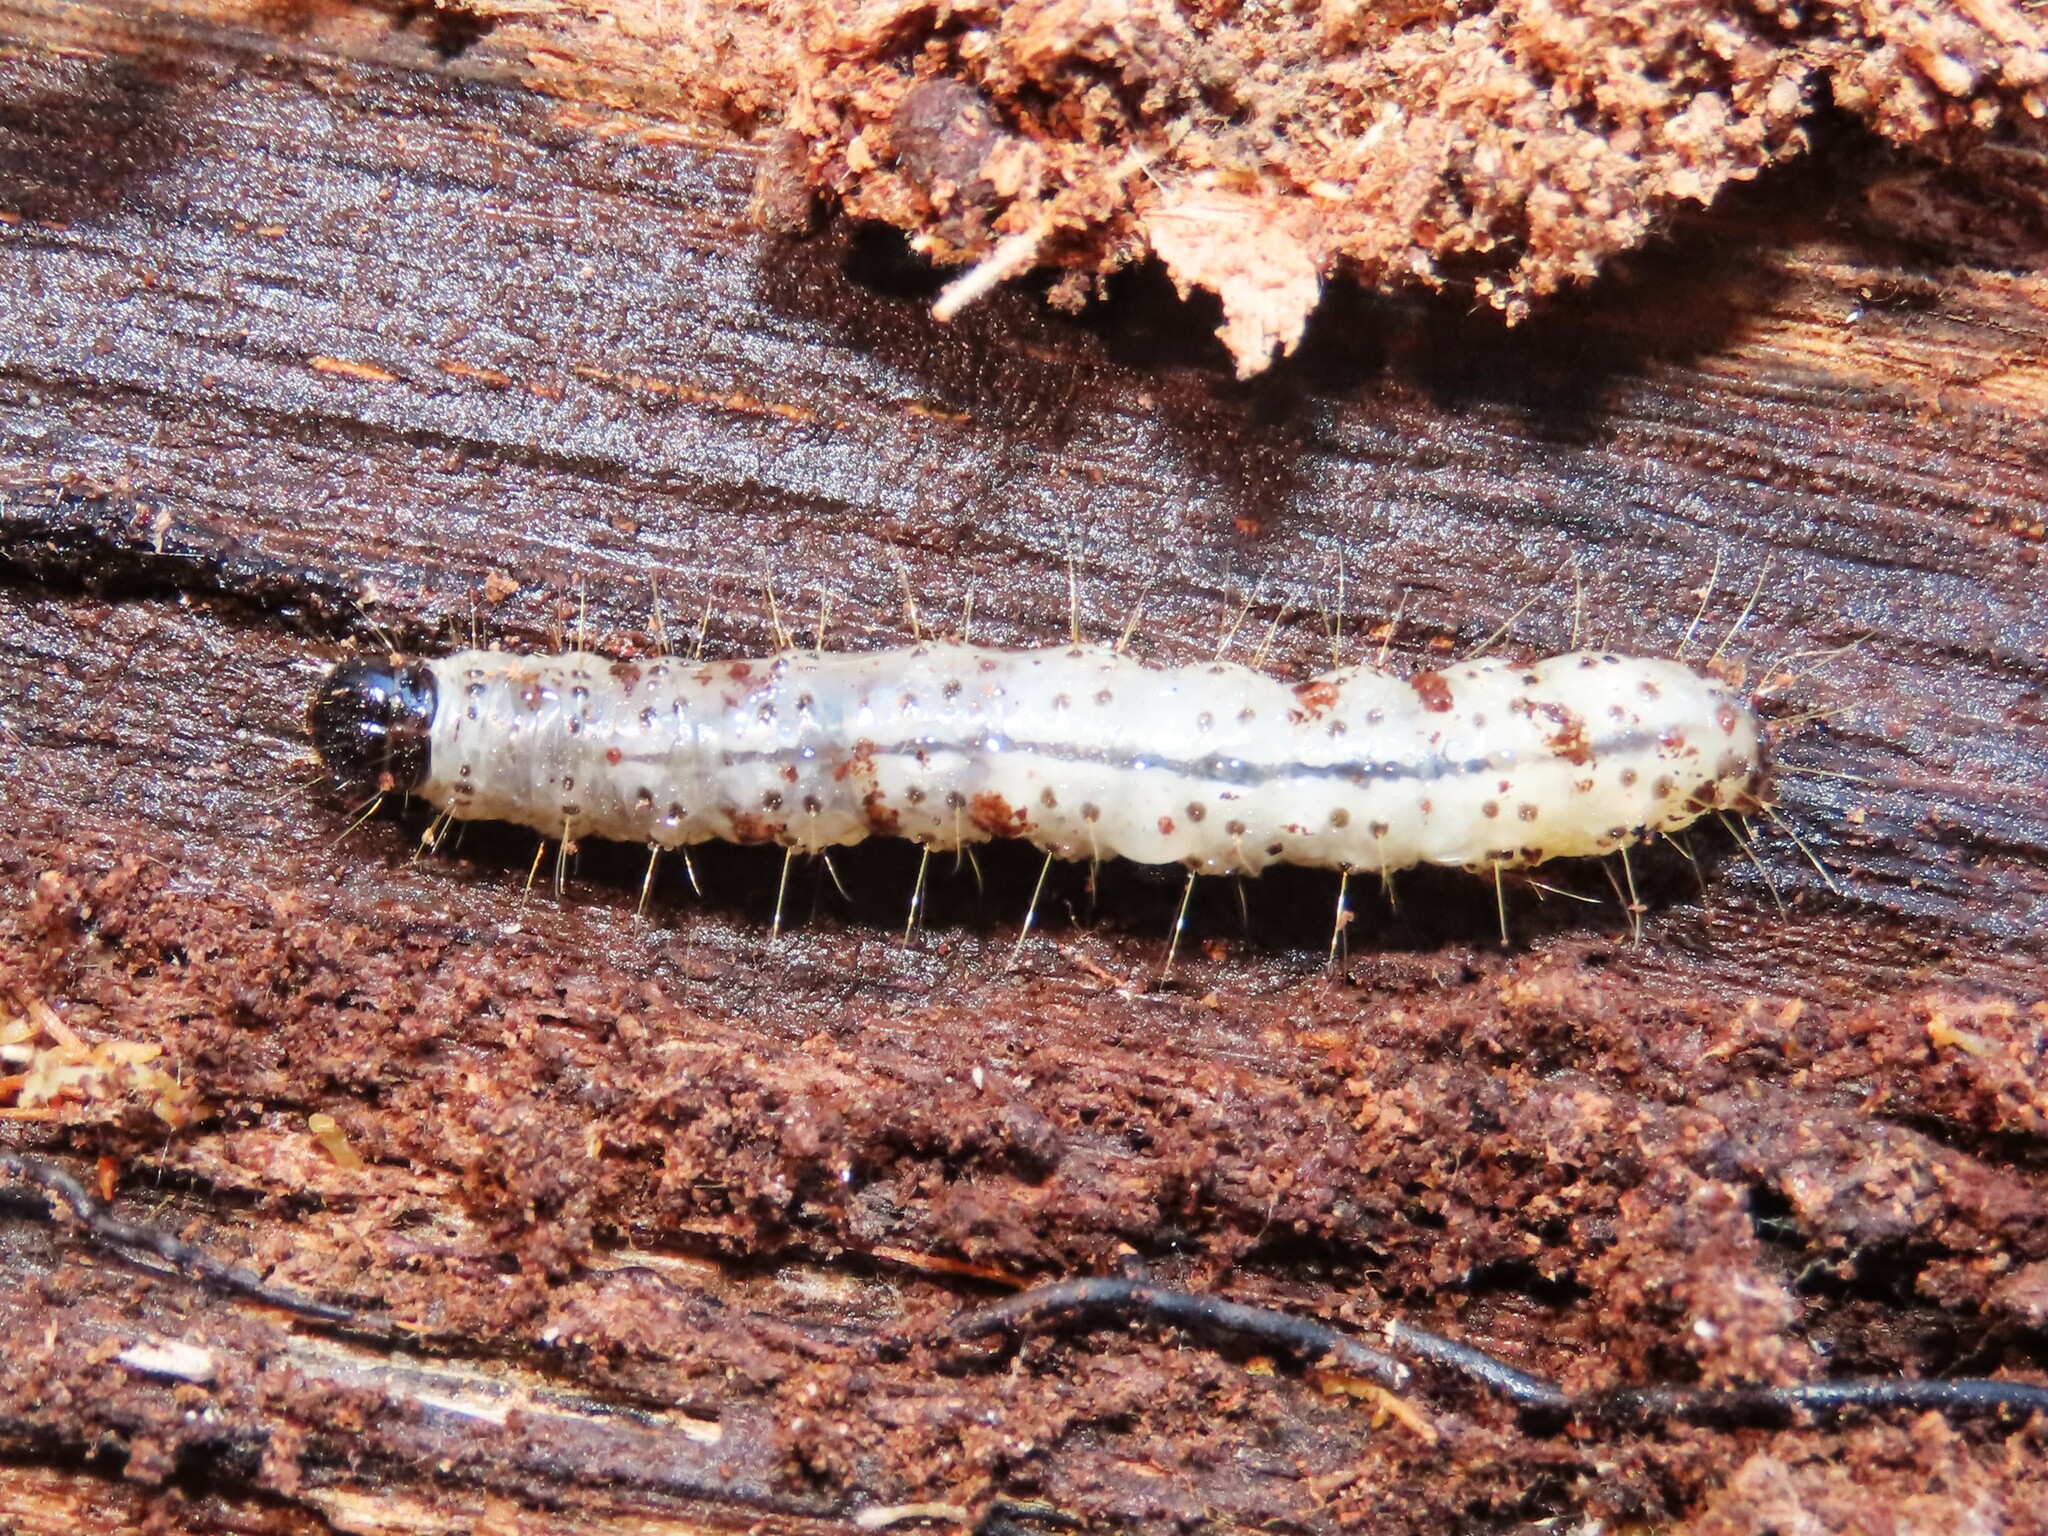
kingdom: Animalia
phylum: Arthropoda
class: Insecta
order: Lepidoptera
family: Erebidae
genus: Scolecocampa
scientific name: Scolecocampa liburna
